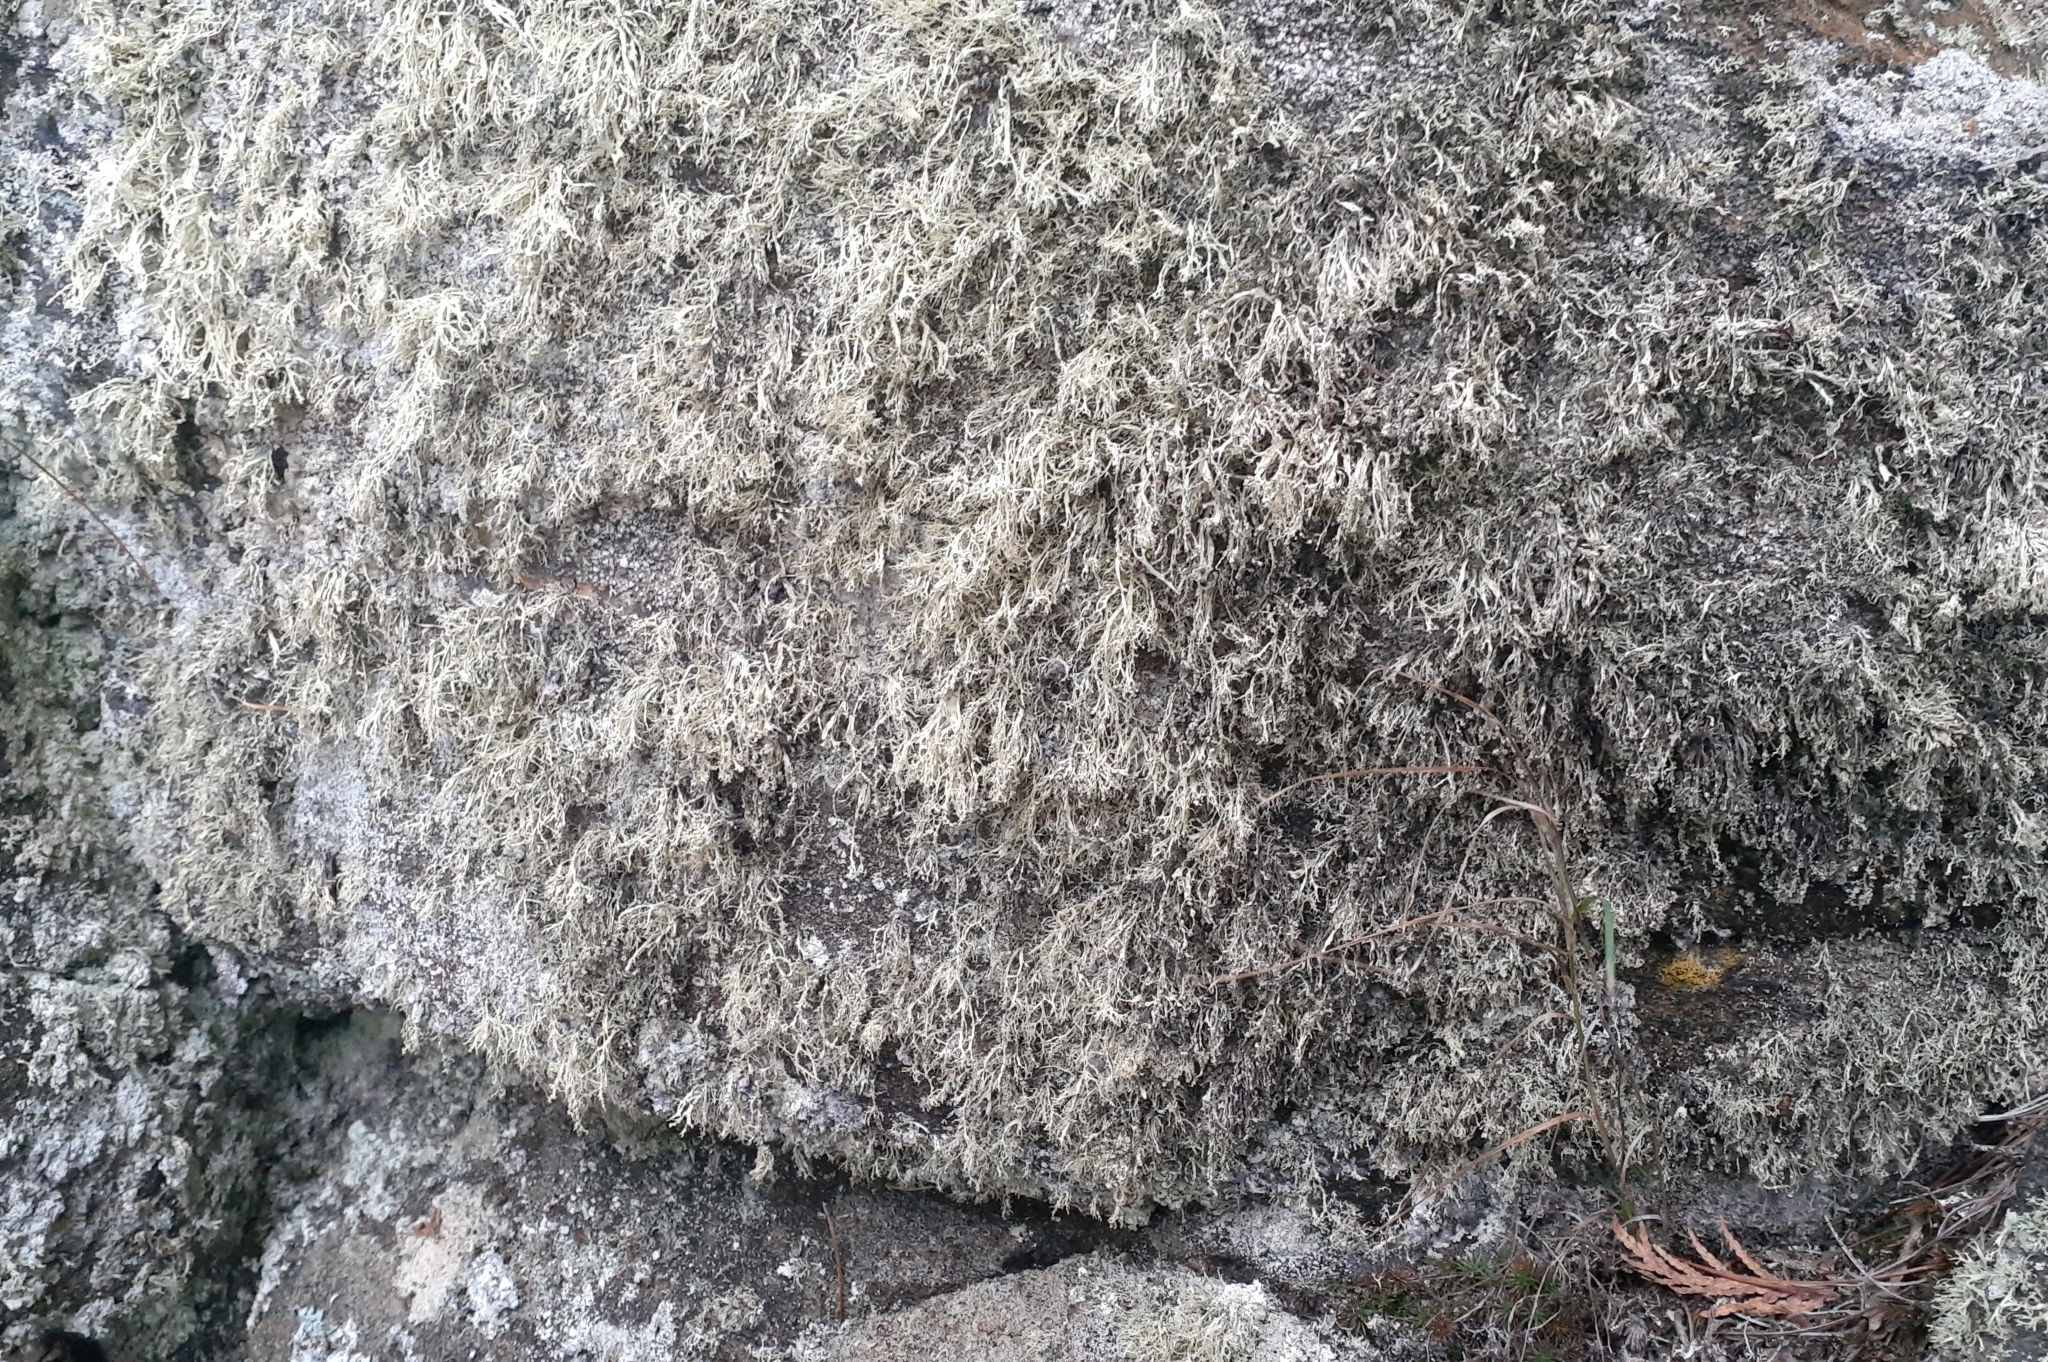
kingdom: Fungi
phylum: Ascomycota
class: Lecanoromycetes
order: Lecanorales
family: Ramalinaceae
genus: Ramalina
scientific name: Ramalina intermedia
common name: Rock bushy lichen
